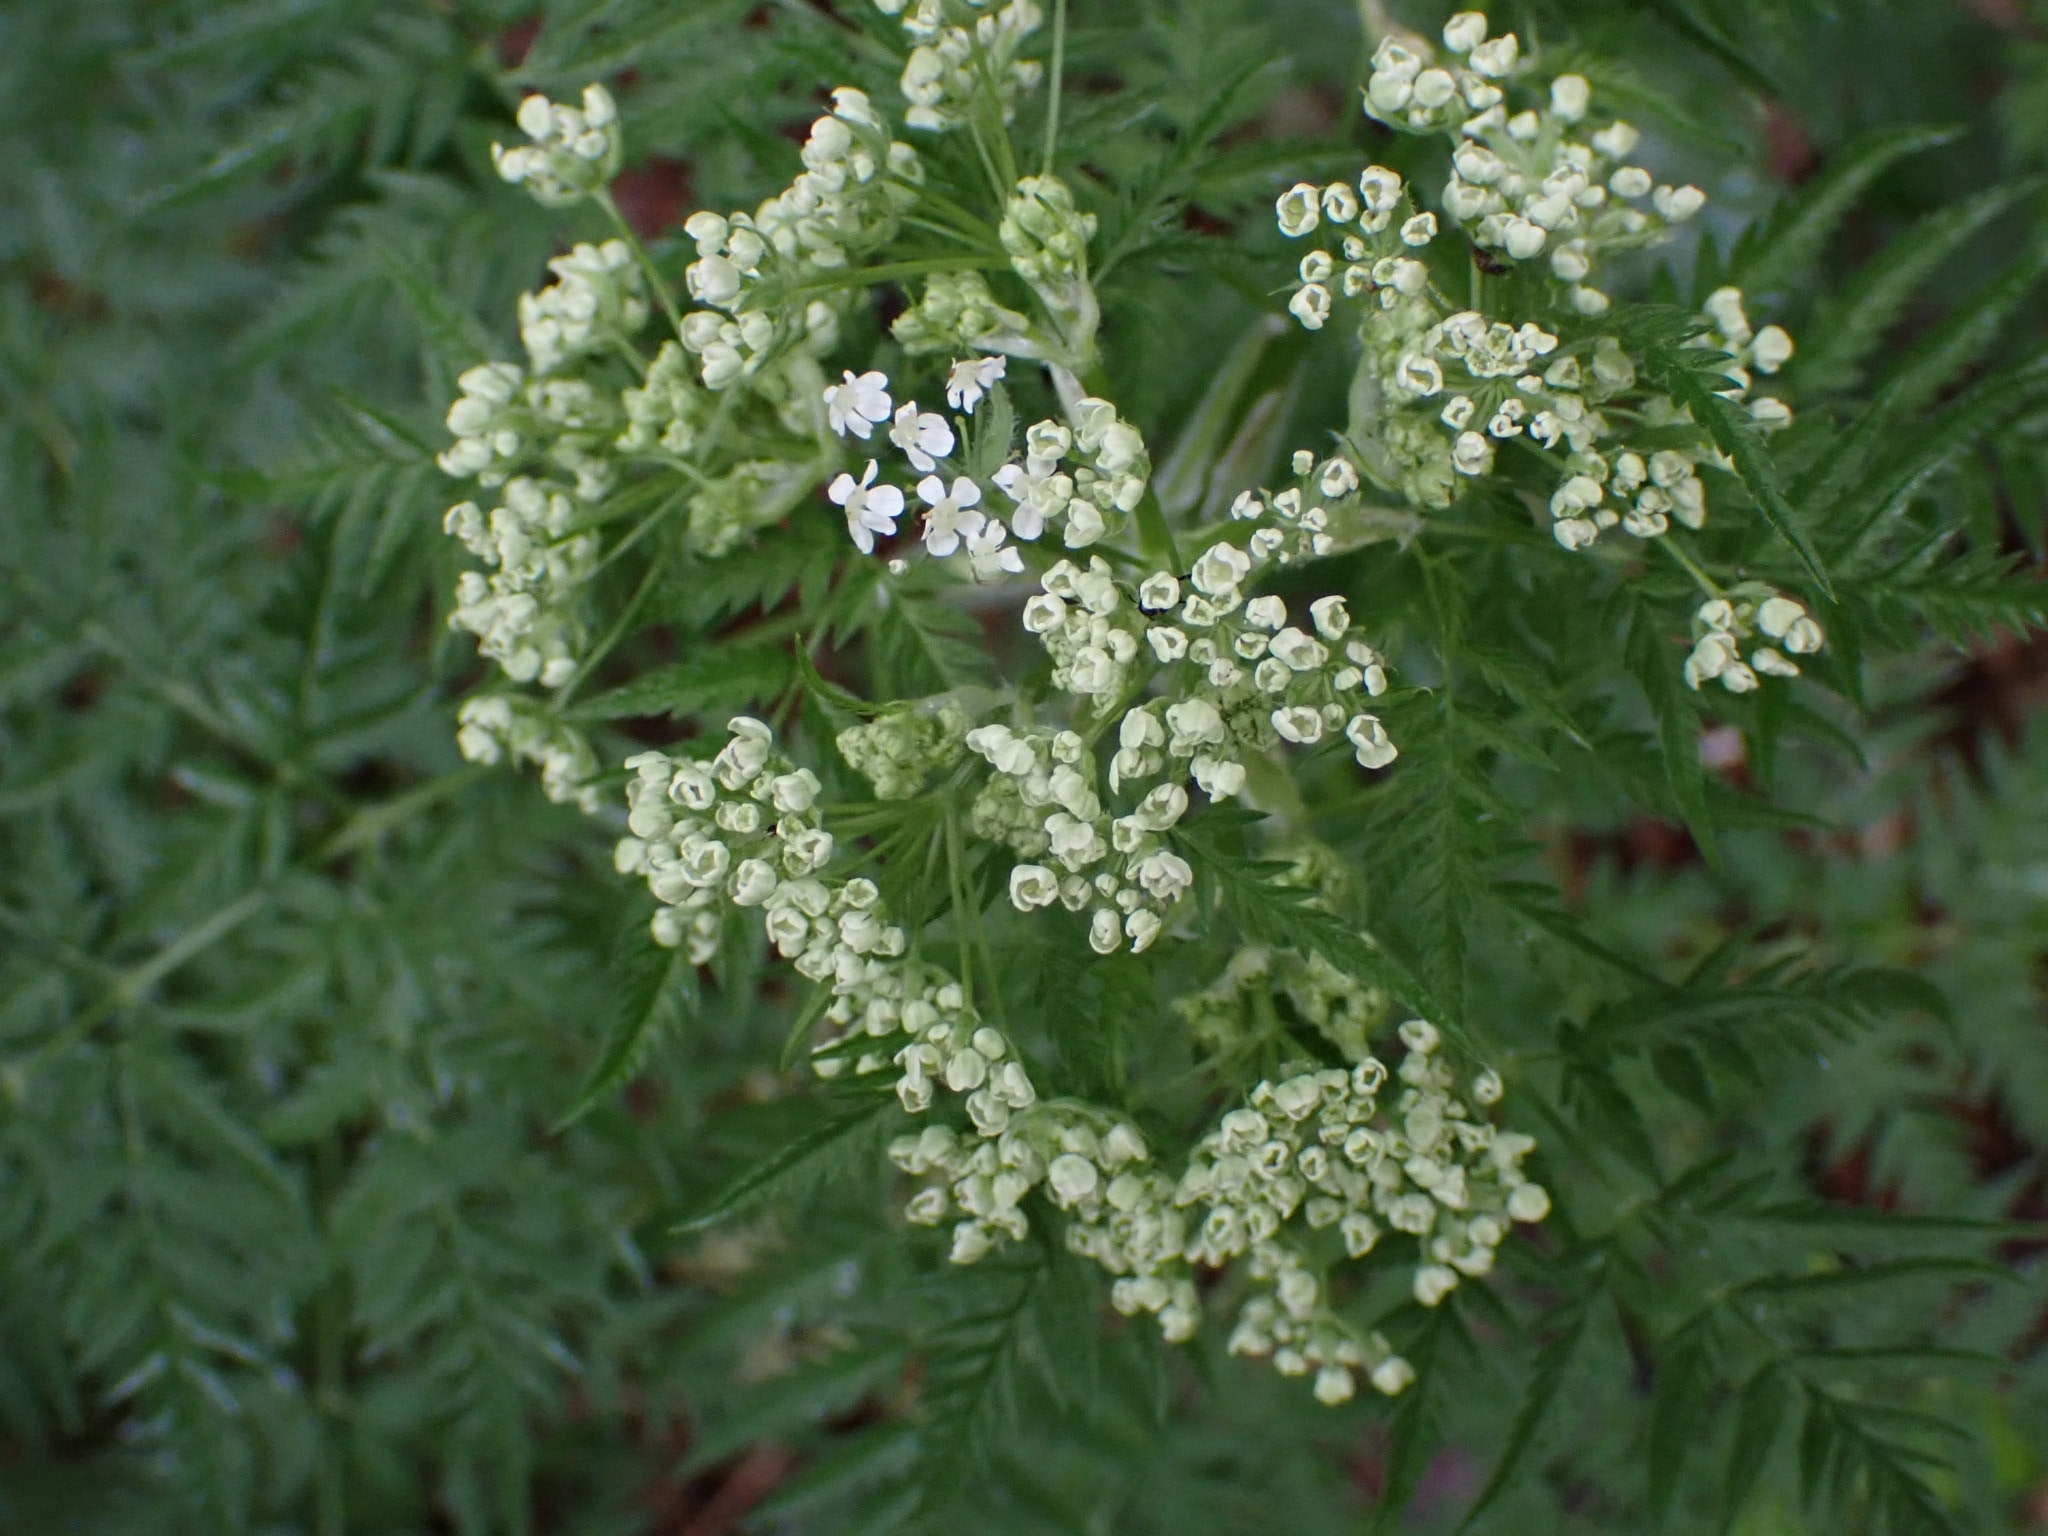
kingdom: Plantae
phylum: Tracheophyta
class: Magnoliopsida
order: Apiales
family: Apiaceae
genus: Anthriscus
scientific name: Anthriscus sylvestris
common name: Cow parsley
